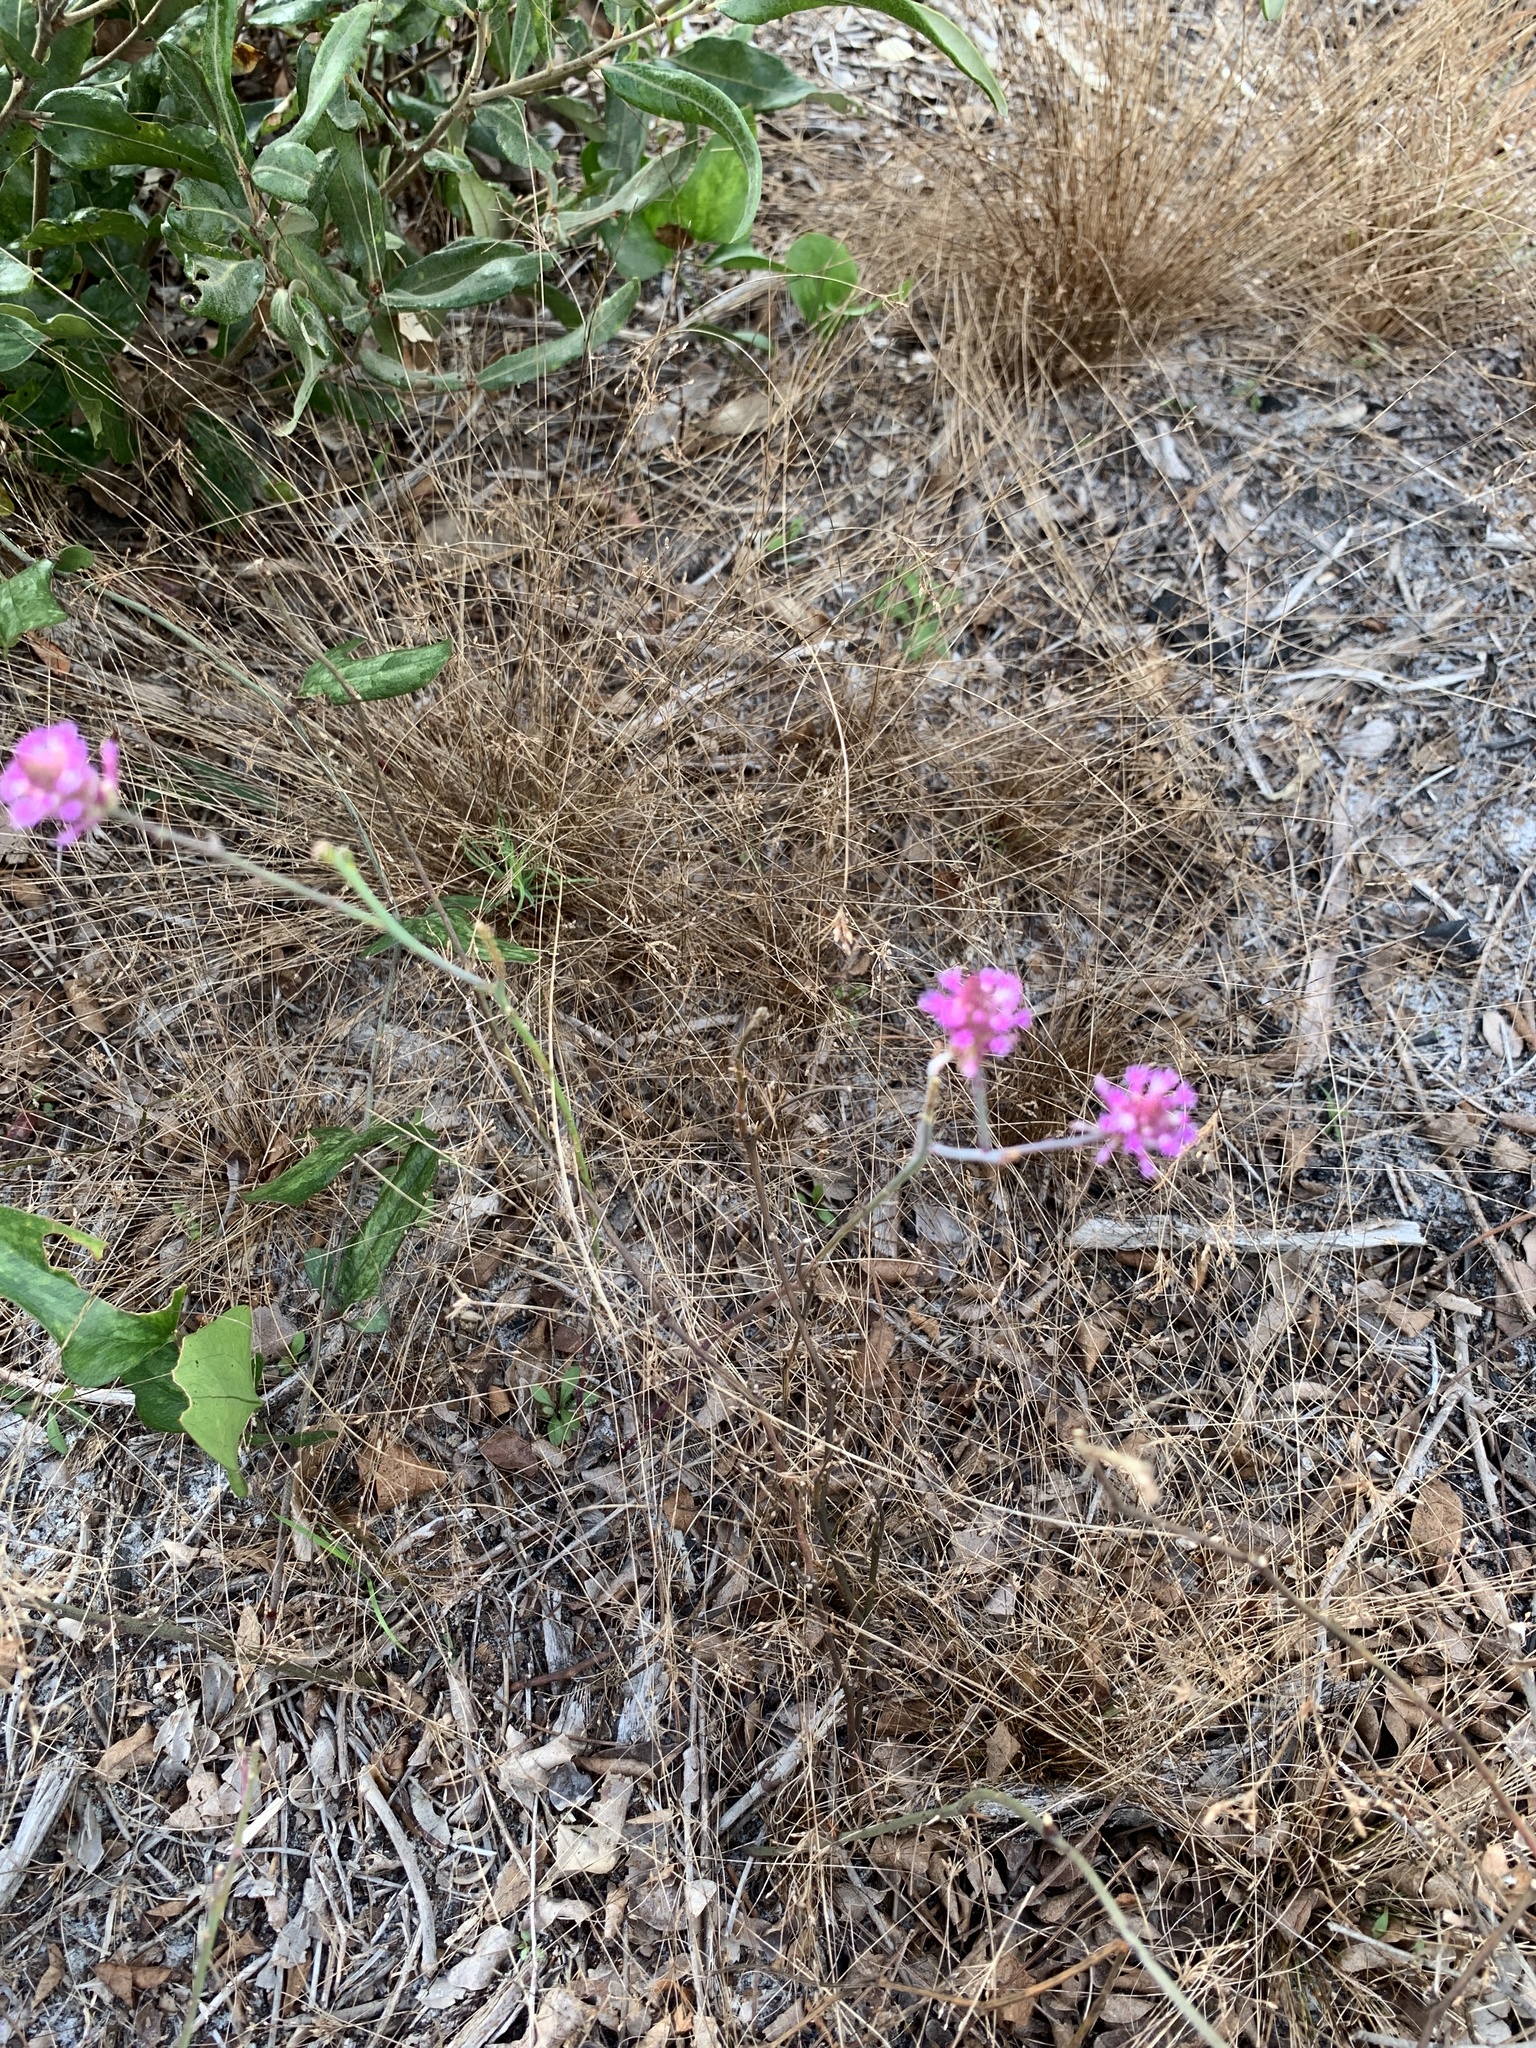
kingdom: Plantae
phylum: Tracheophyta
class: Magnoliopsida
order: Fabales
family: Polygalaceae
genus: Polygala
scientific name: Polygala incarnata
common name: Pink milkwort
